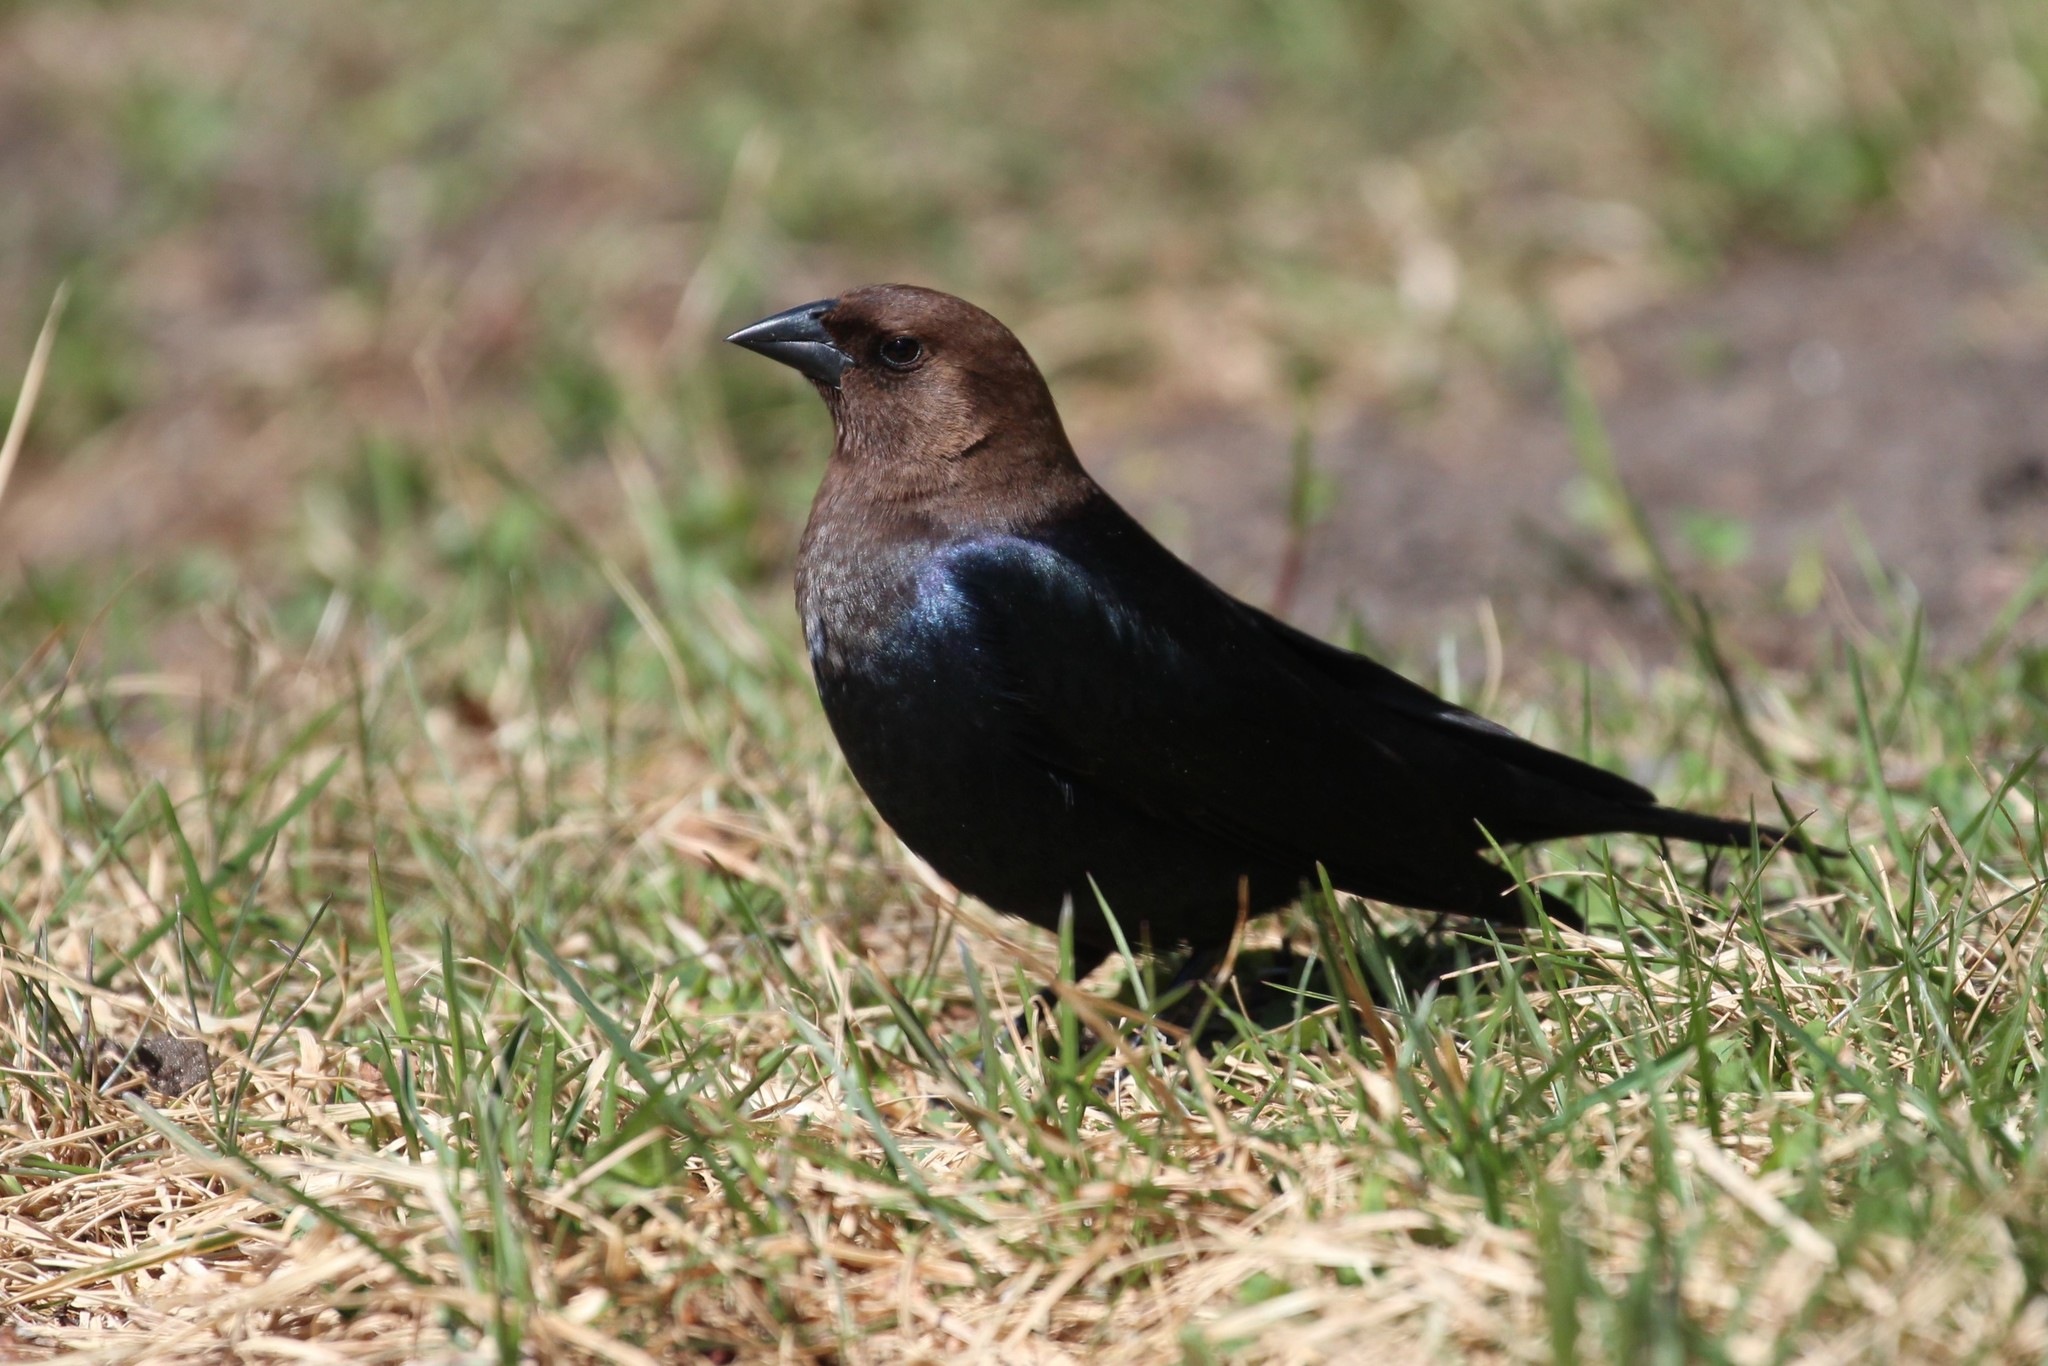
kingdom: Animalia
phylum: Chordata
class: Aves
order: Passeriformes
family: Icteridae
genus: Molothrus
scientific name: Molothrus ater
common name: Brown-headed cowbird
